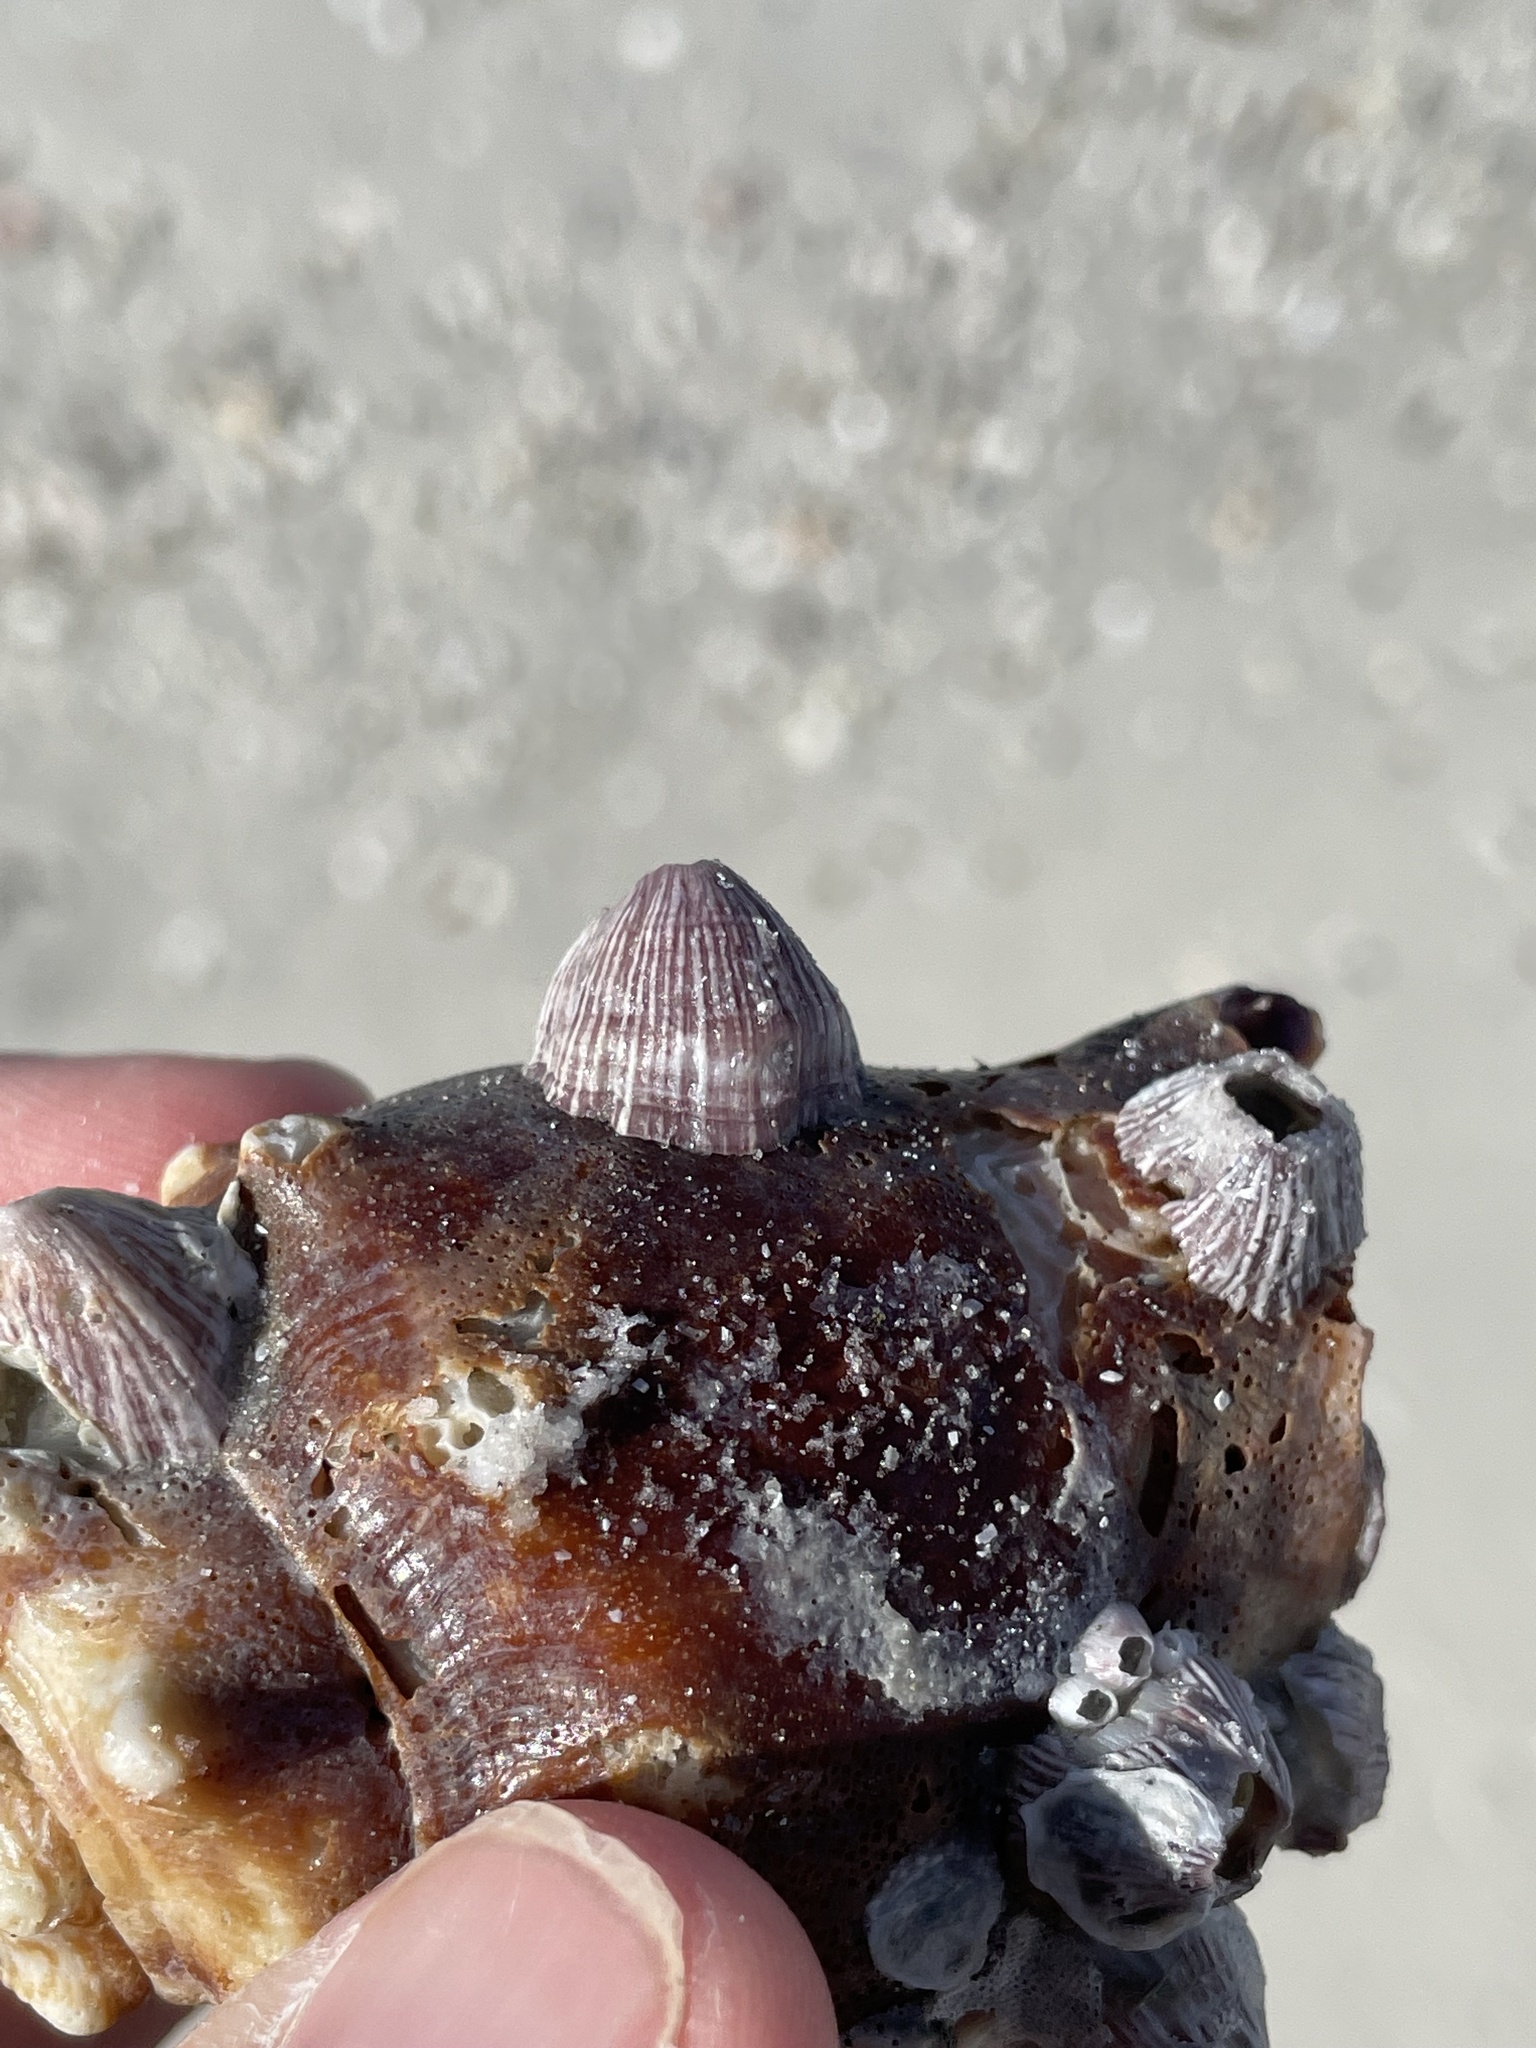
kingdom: Animalia
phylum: Arthropoda
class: Maxillopoda
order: Sessilia
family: Balanidae
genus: Balanus
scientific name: Balanus trigonus
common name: Triangle barnacle
